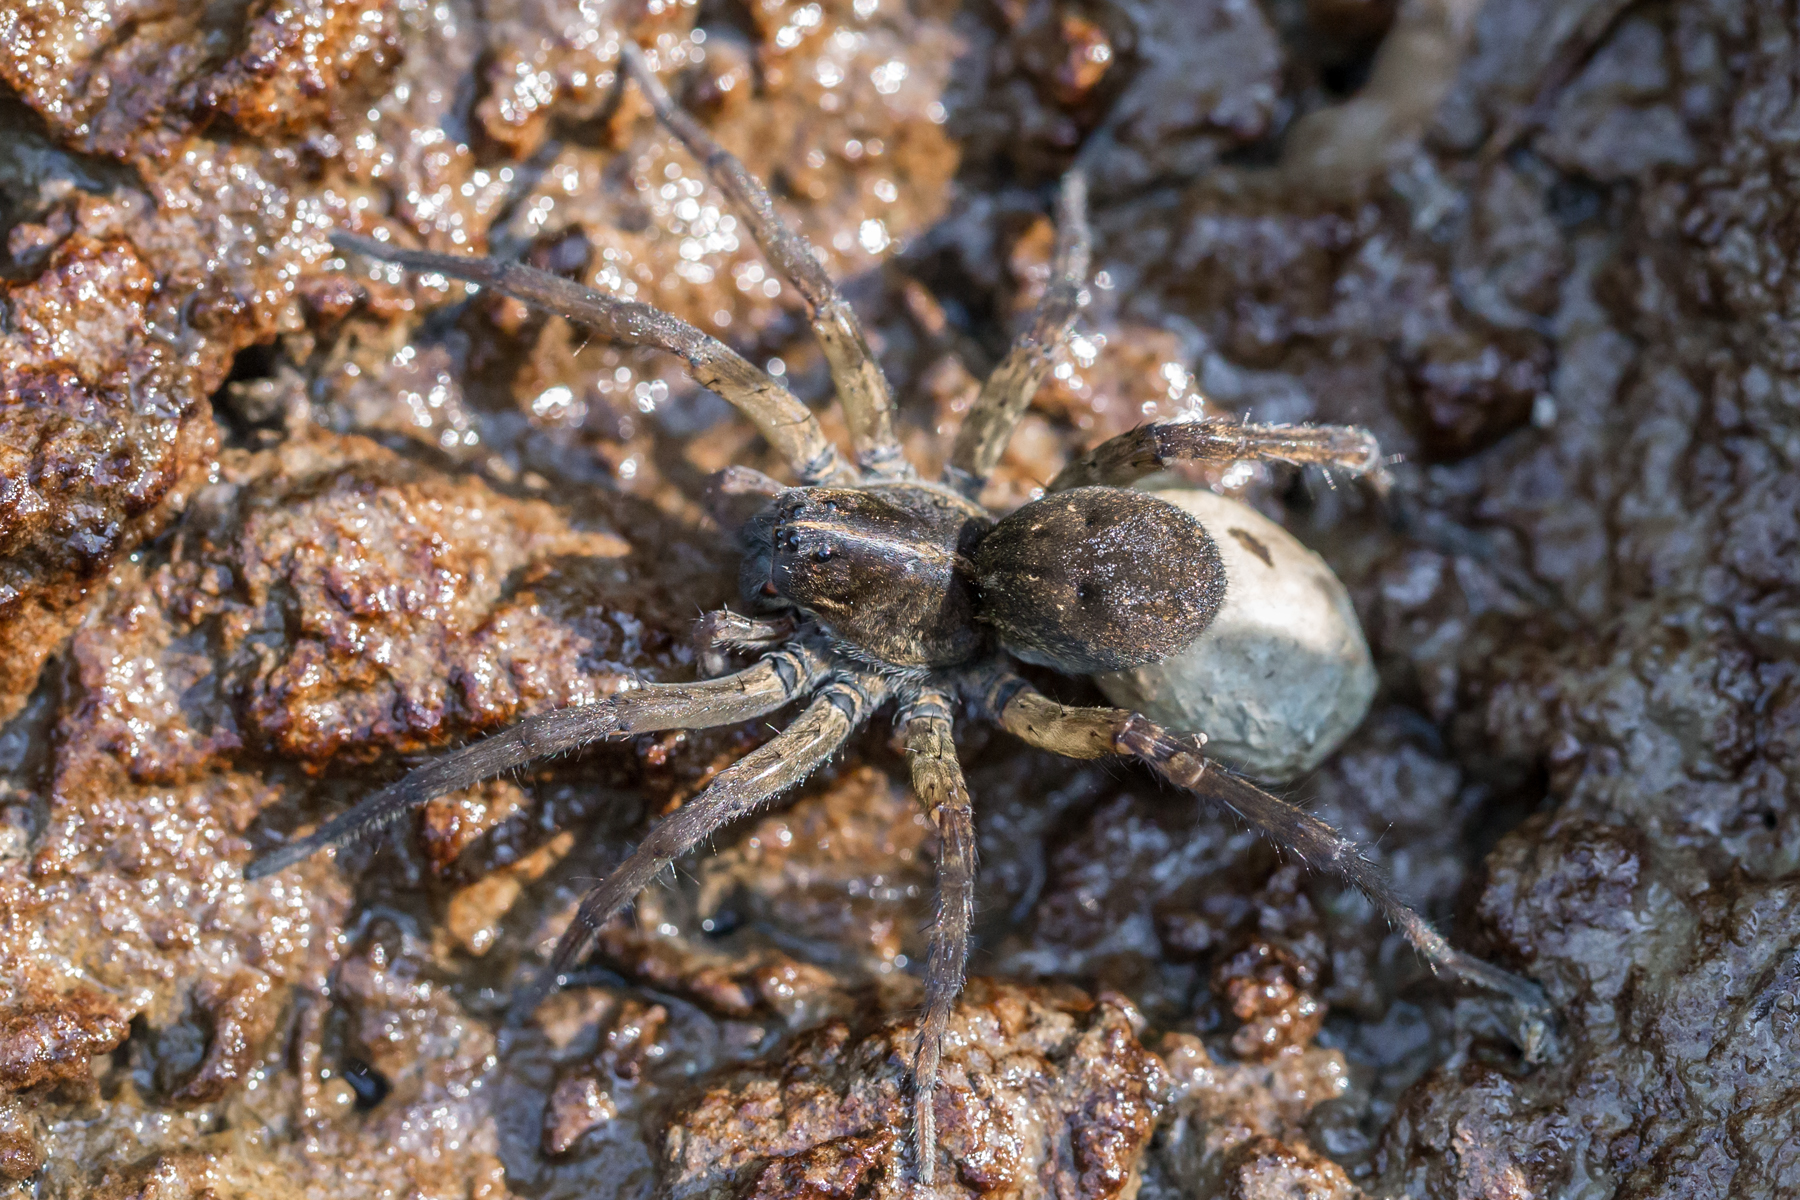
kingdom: Animalia
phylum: Arthropoda
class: Arachnida
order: Araneae
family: Lycosidae
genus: Tigrosa
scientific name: Tigrosa helluo
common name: Wetland giant wolf spider
